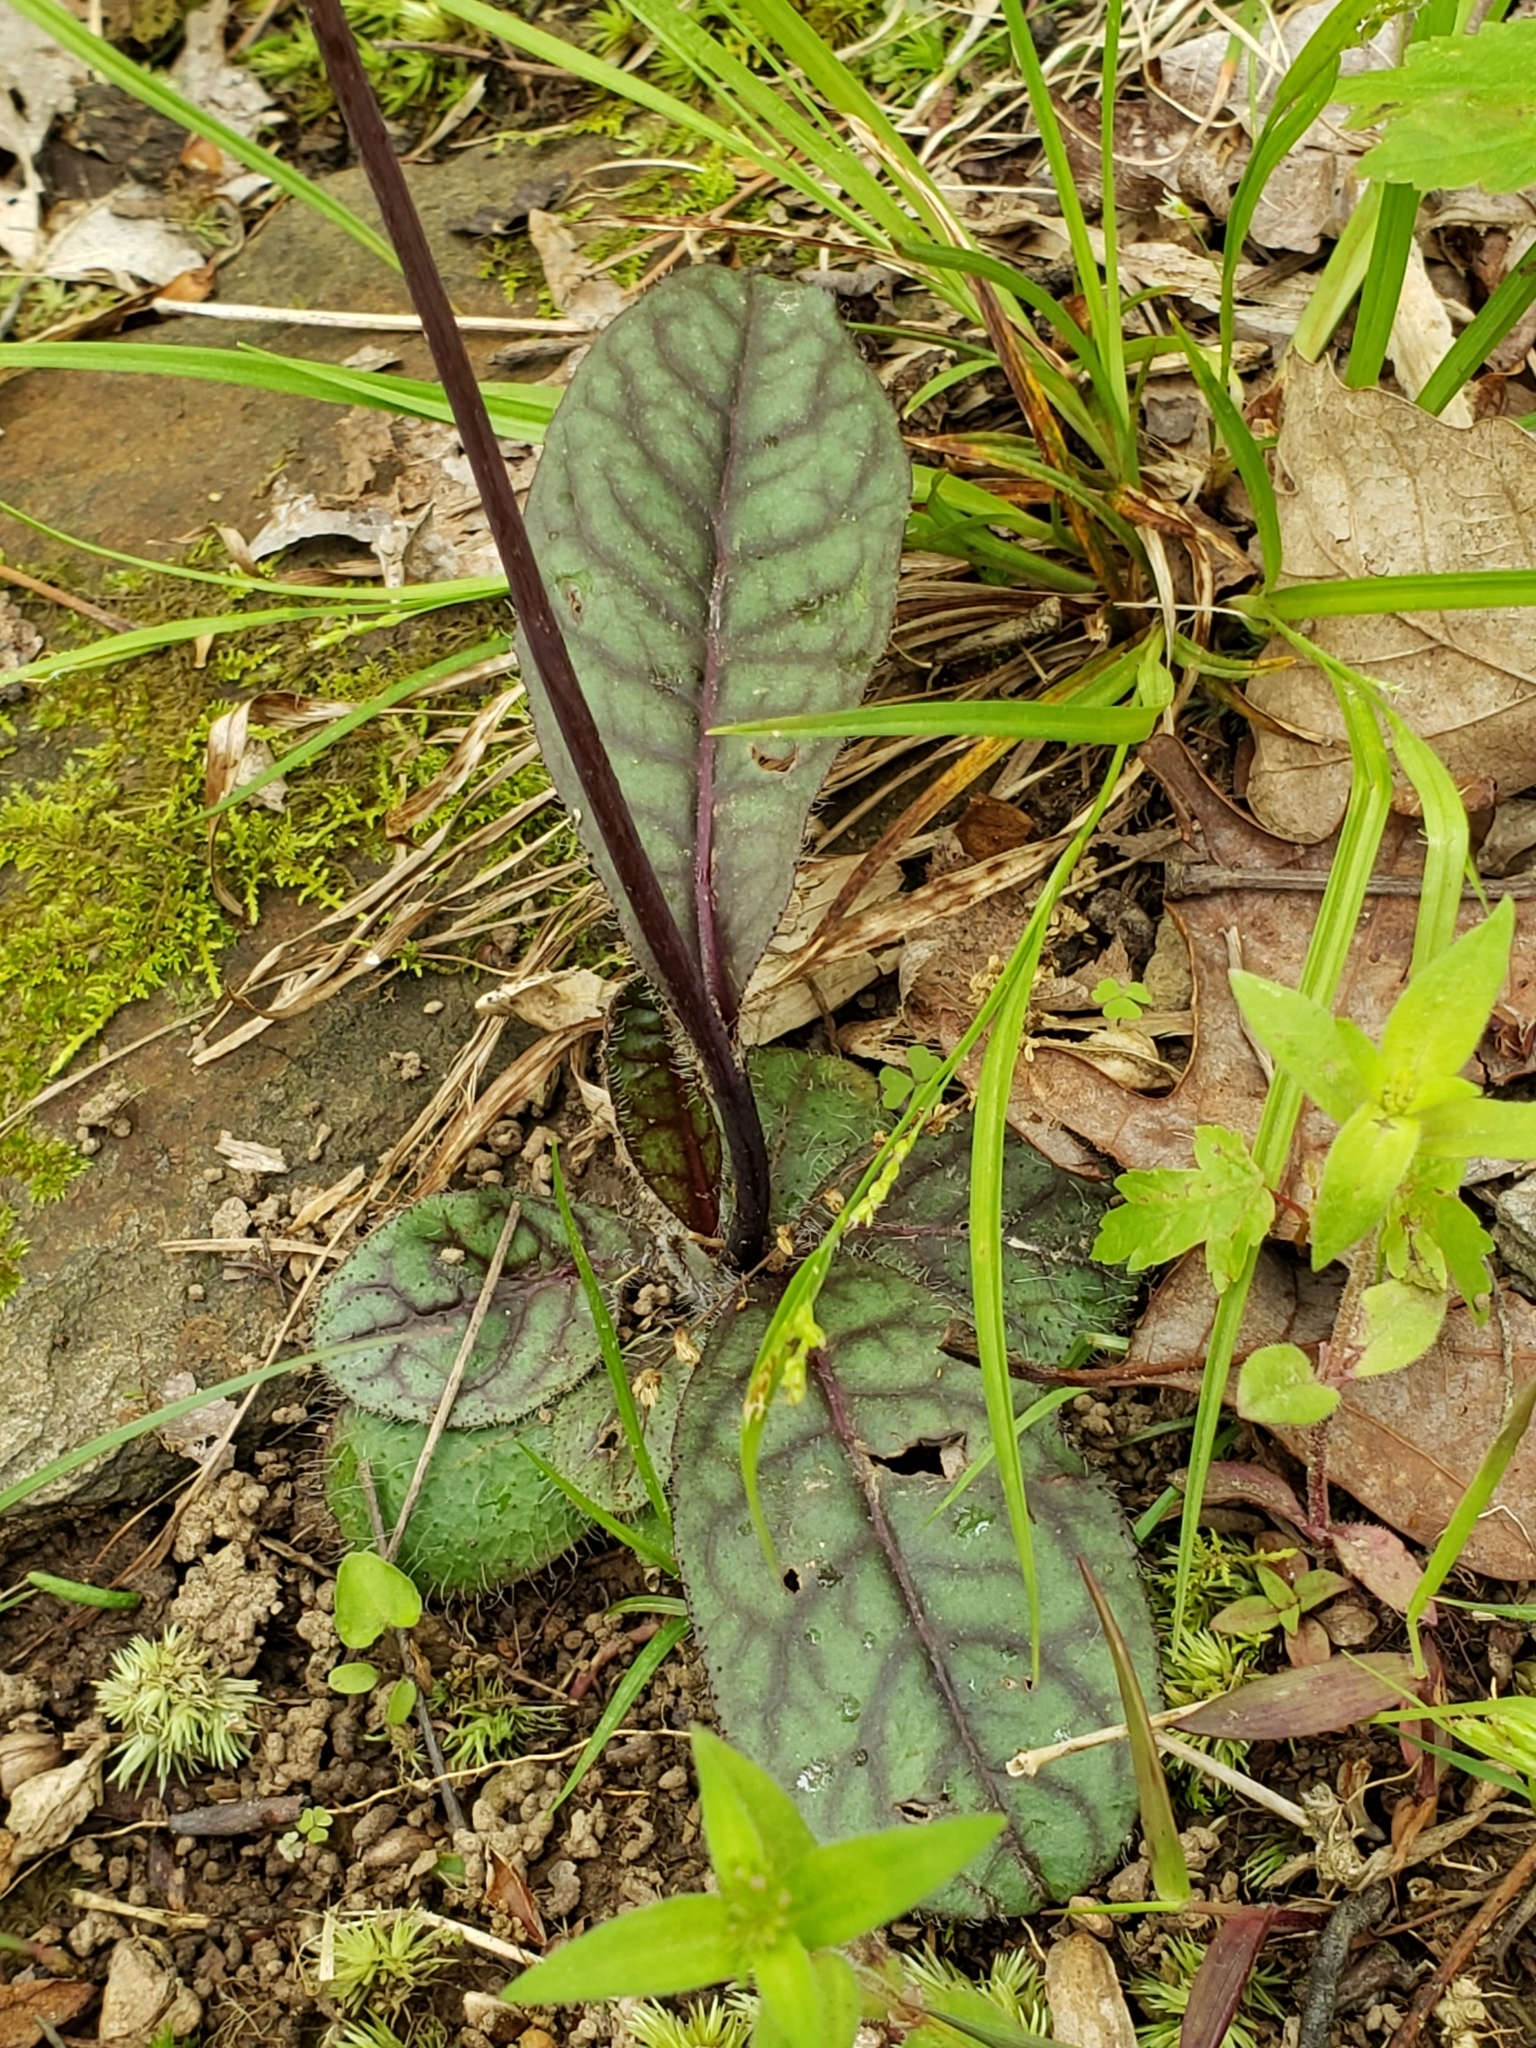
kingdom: Plantae
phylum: Tracheophyta
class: Magnoliopsida
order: Asterales
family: Asteraceae
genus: Hieracium
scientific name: Hieracium venosum
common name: Rattlesnake hawkweed
